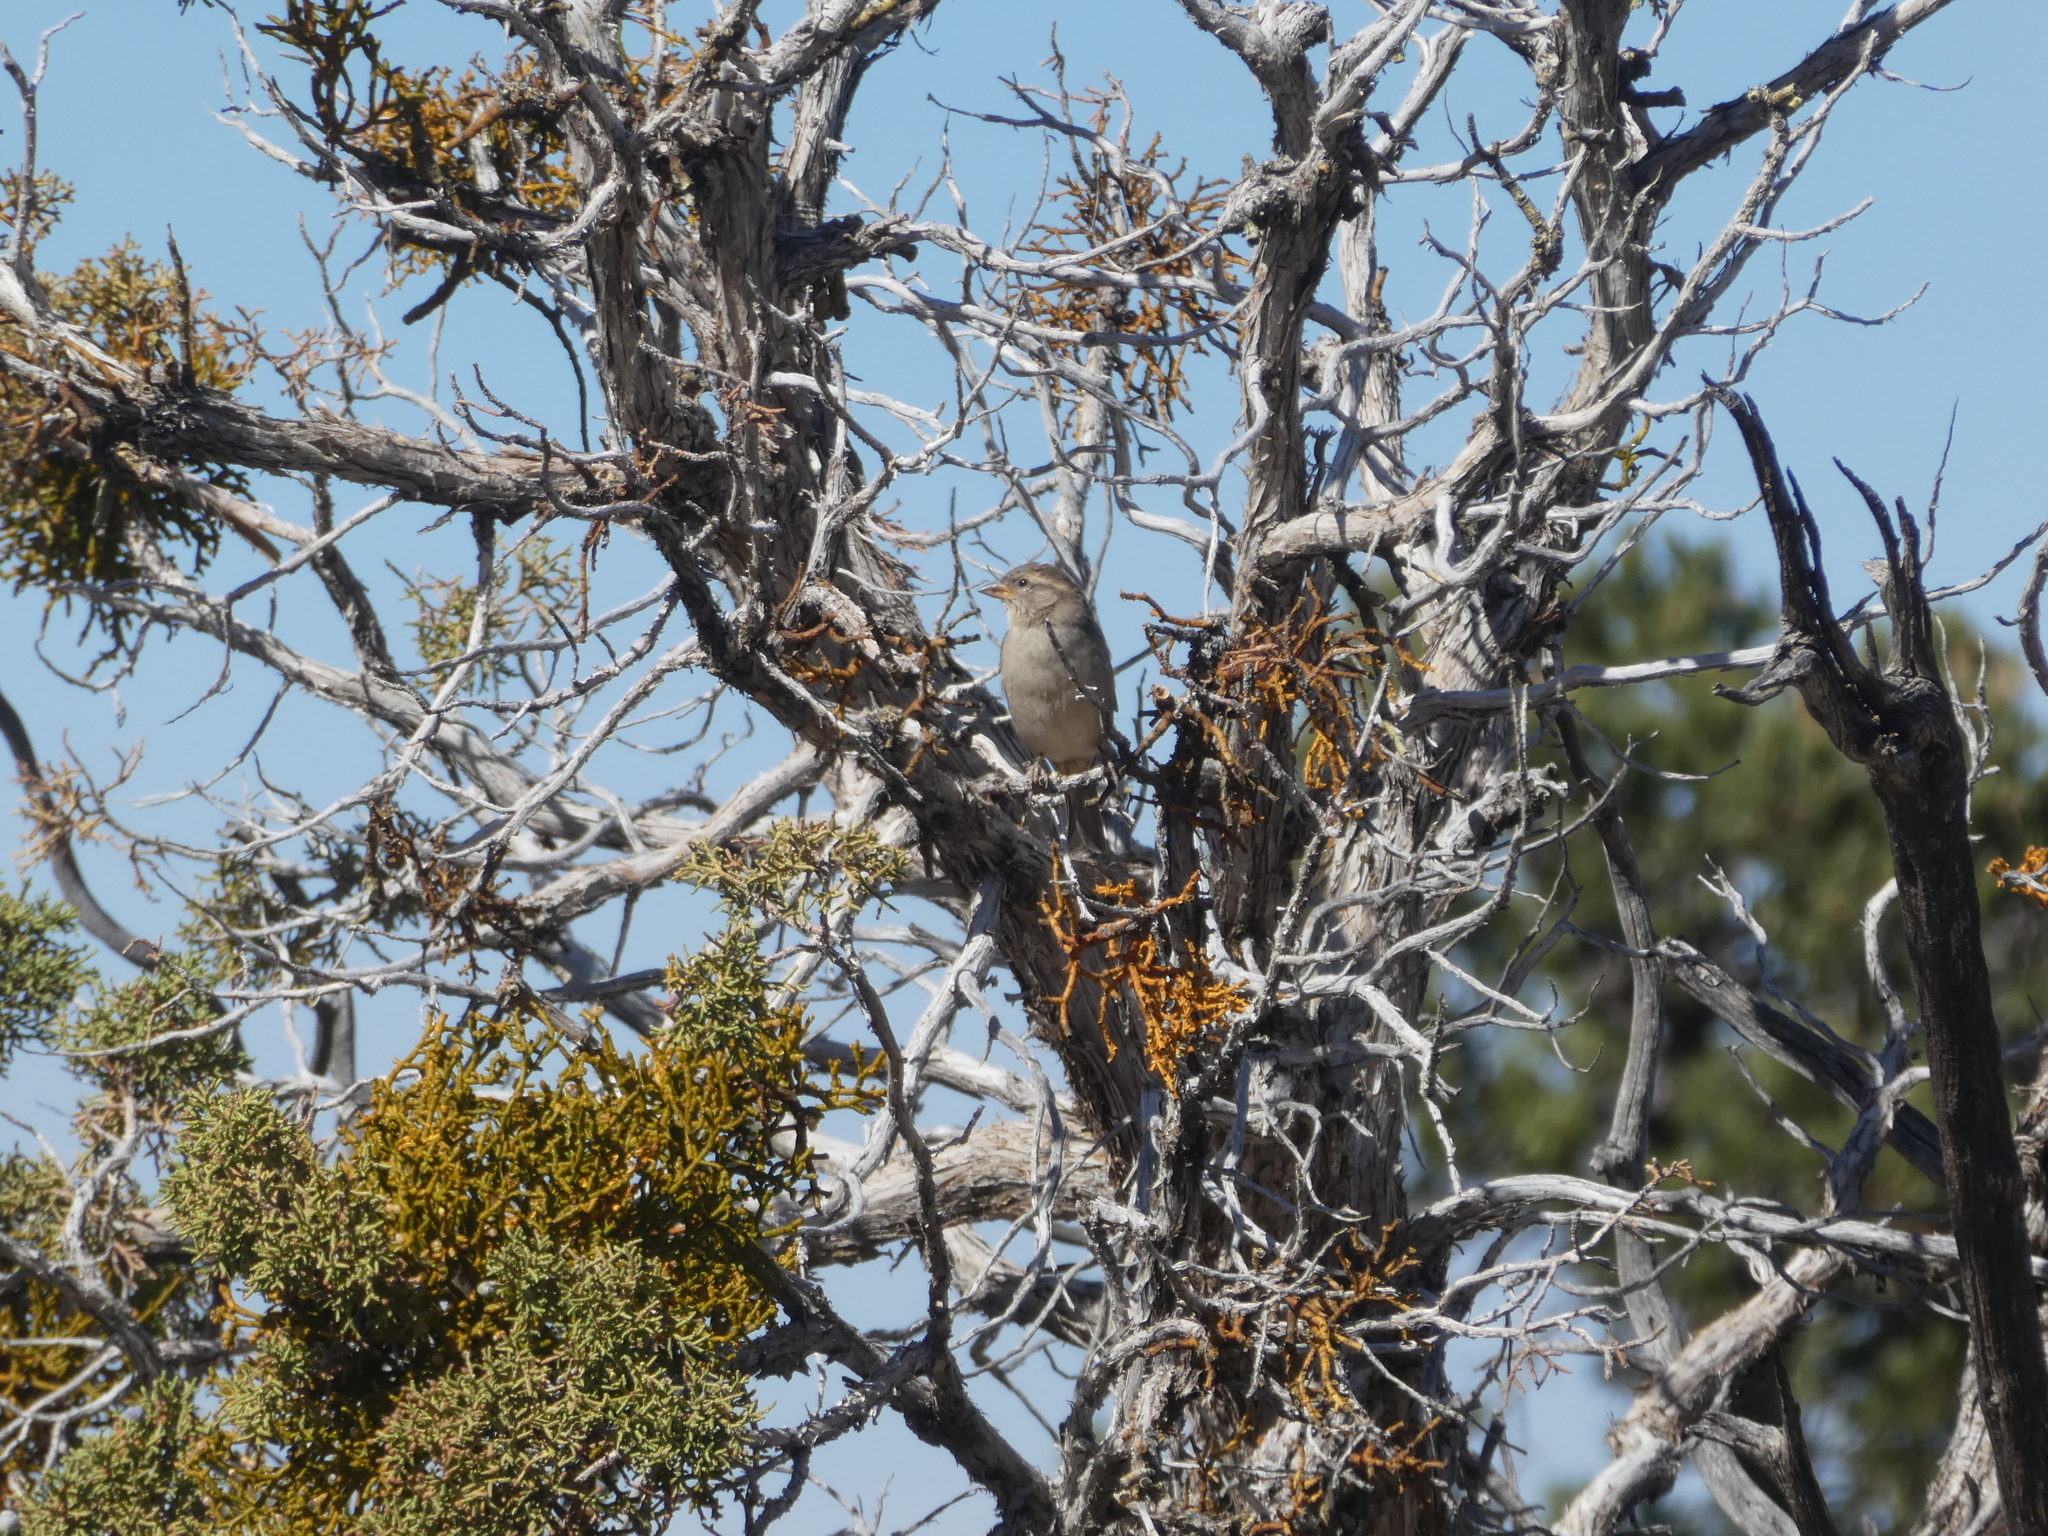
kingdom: Animalia
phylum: Chordata
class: Aves
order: Passeriformes
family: Passeridae
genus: Passer
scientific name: Passer domesticus
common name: House sparrow
